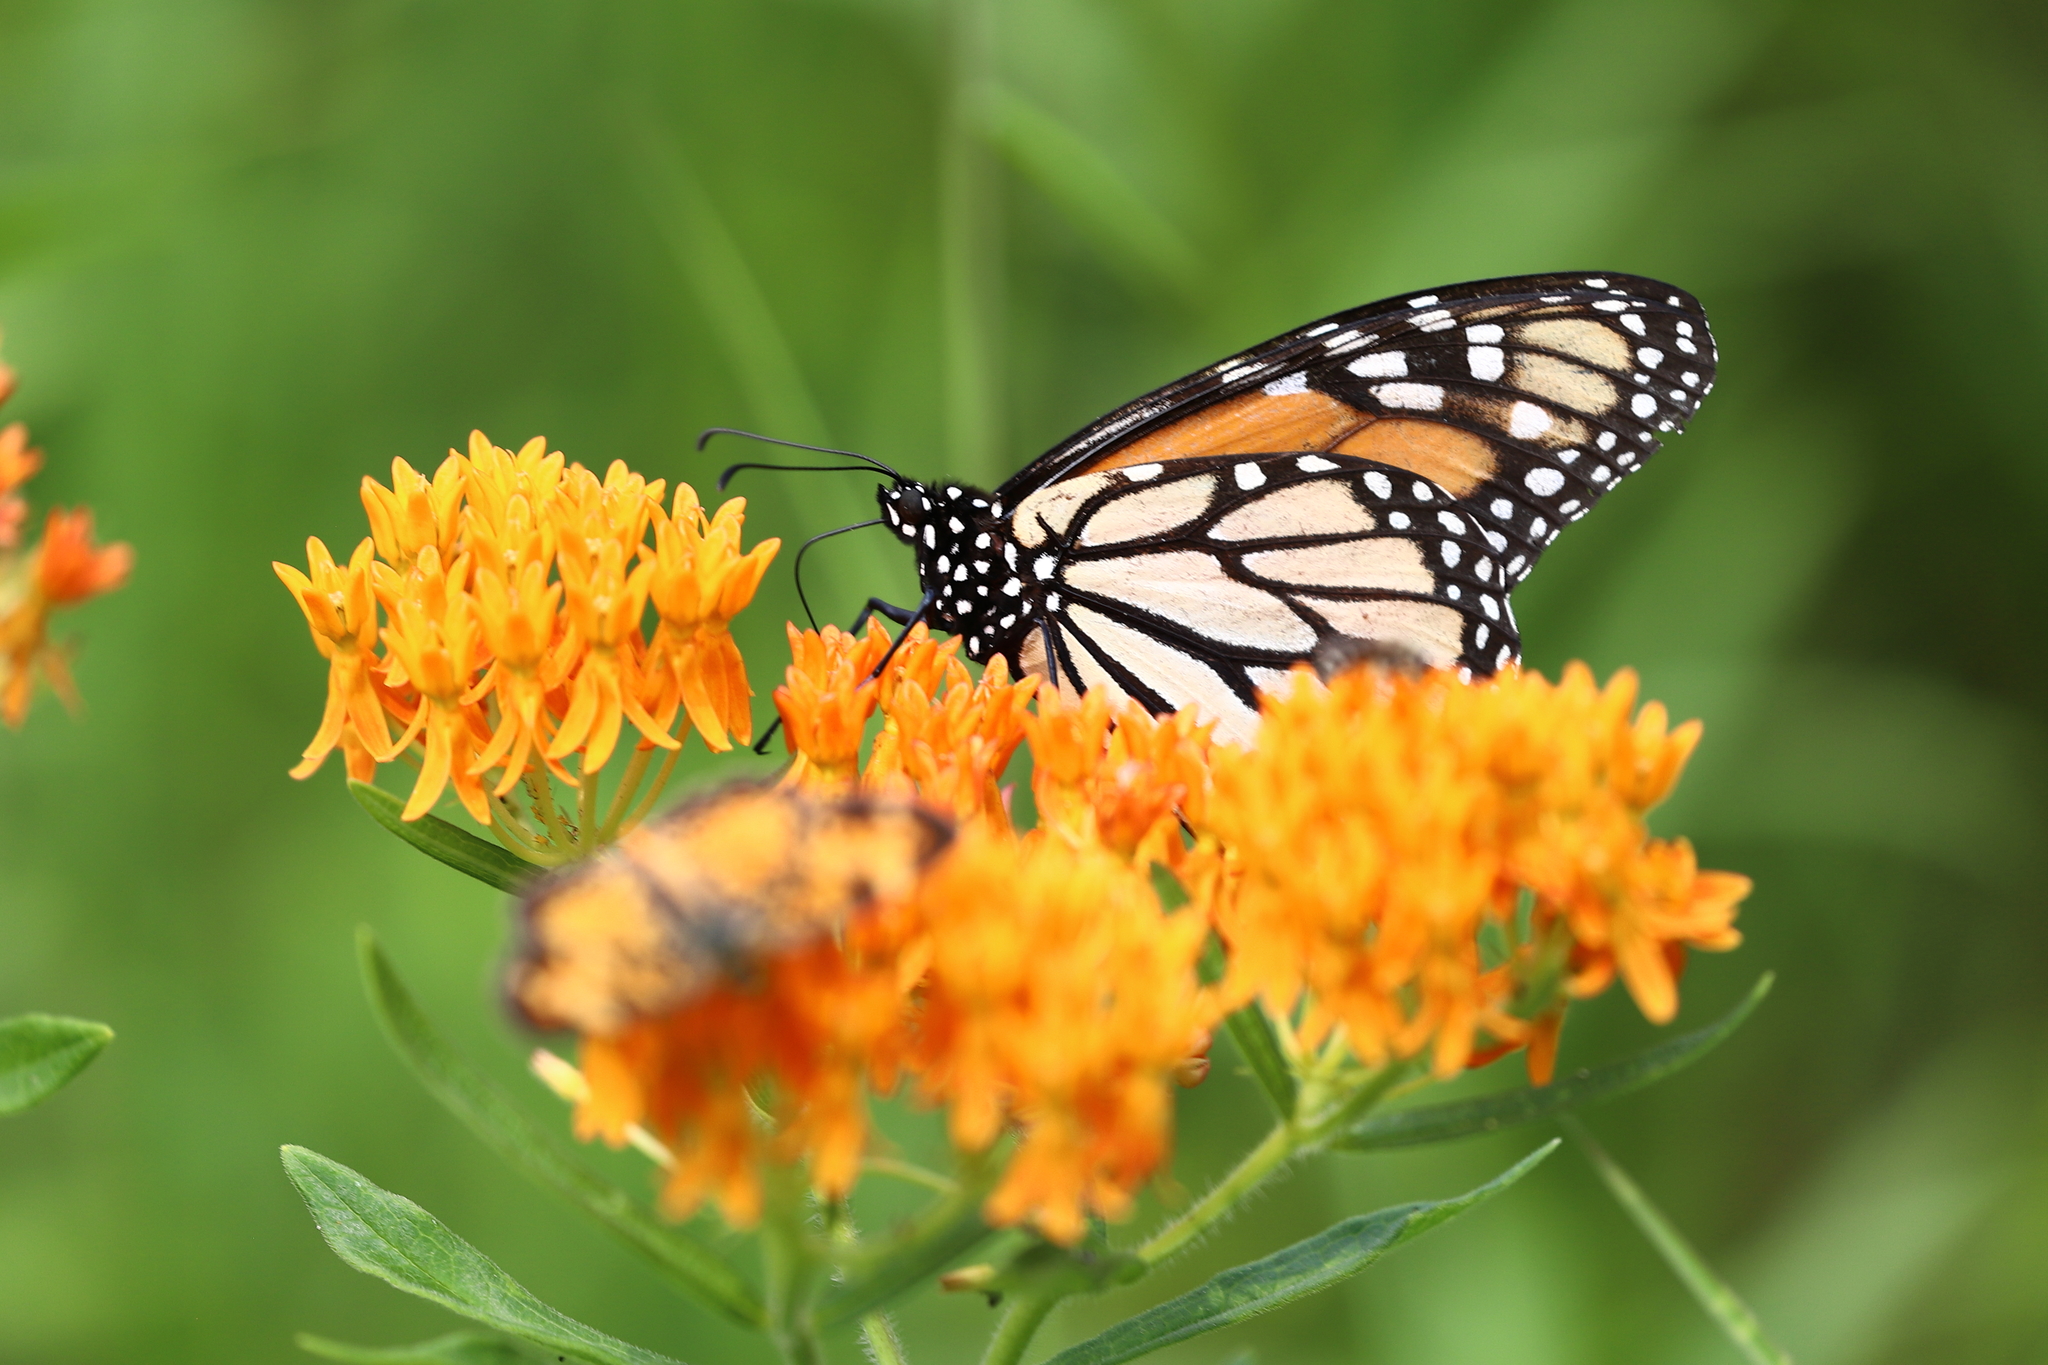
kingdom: Animalia
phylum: Arthropoda
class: Insecta
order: Lepidoptera
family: Nymphalidae
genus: Danaus
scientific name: Danaus plexippus
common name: Monarch
